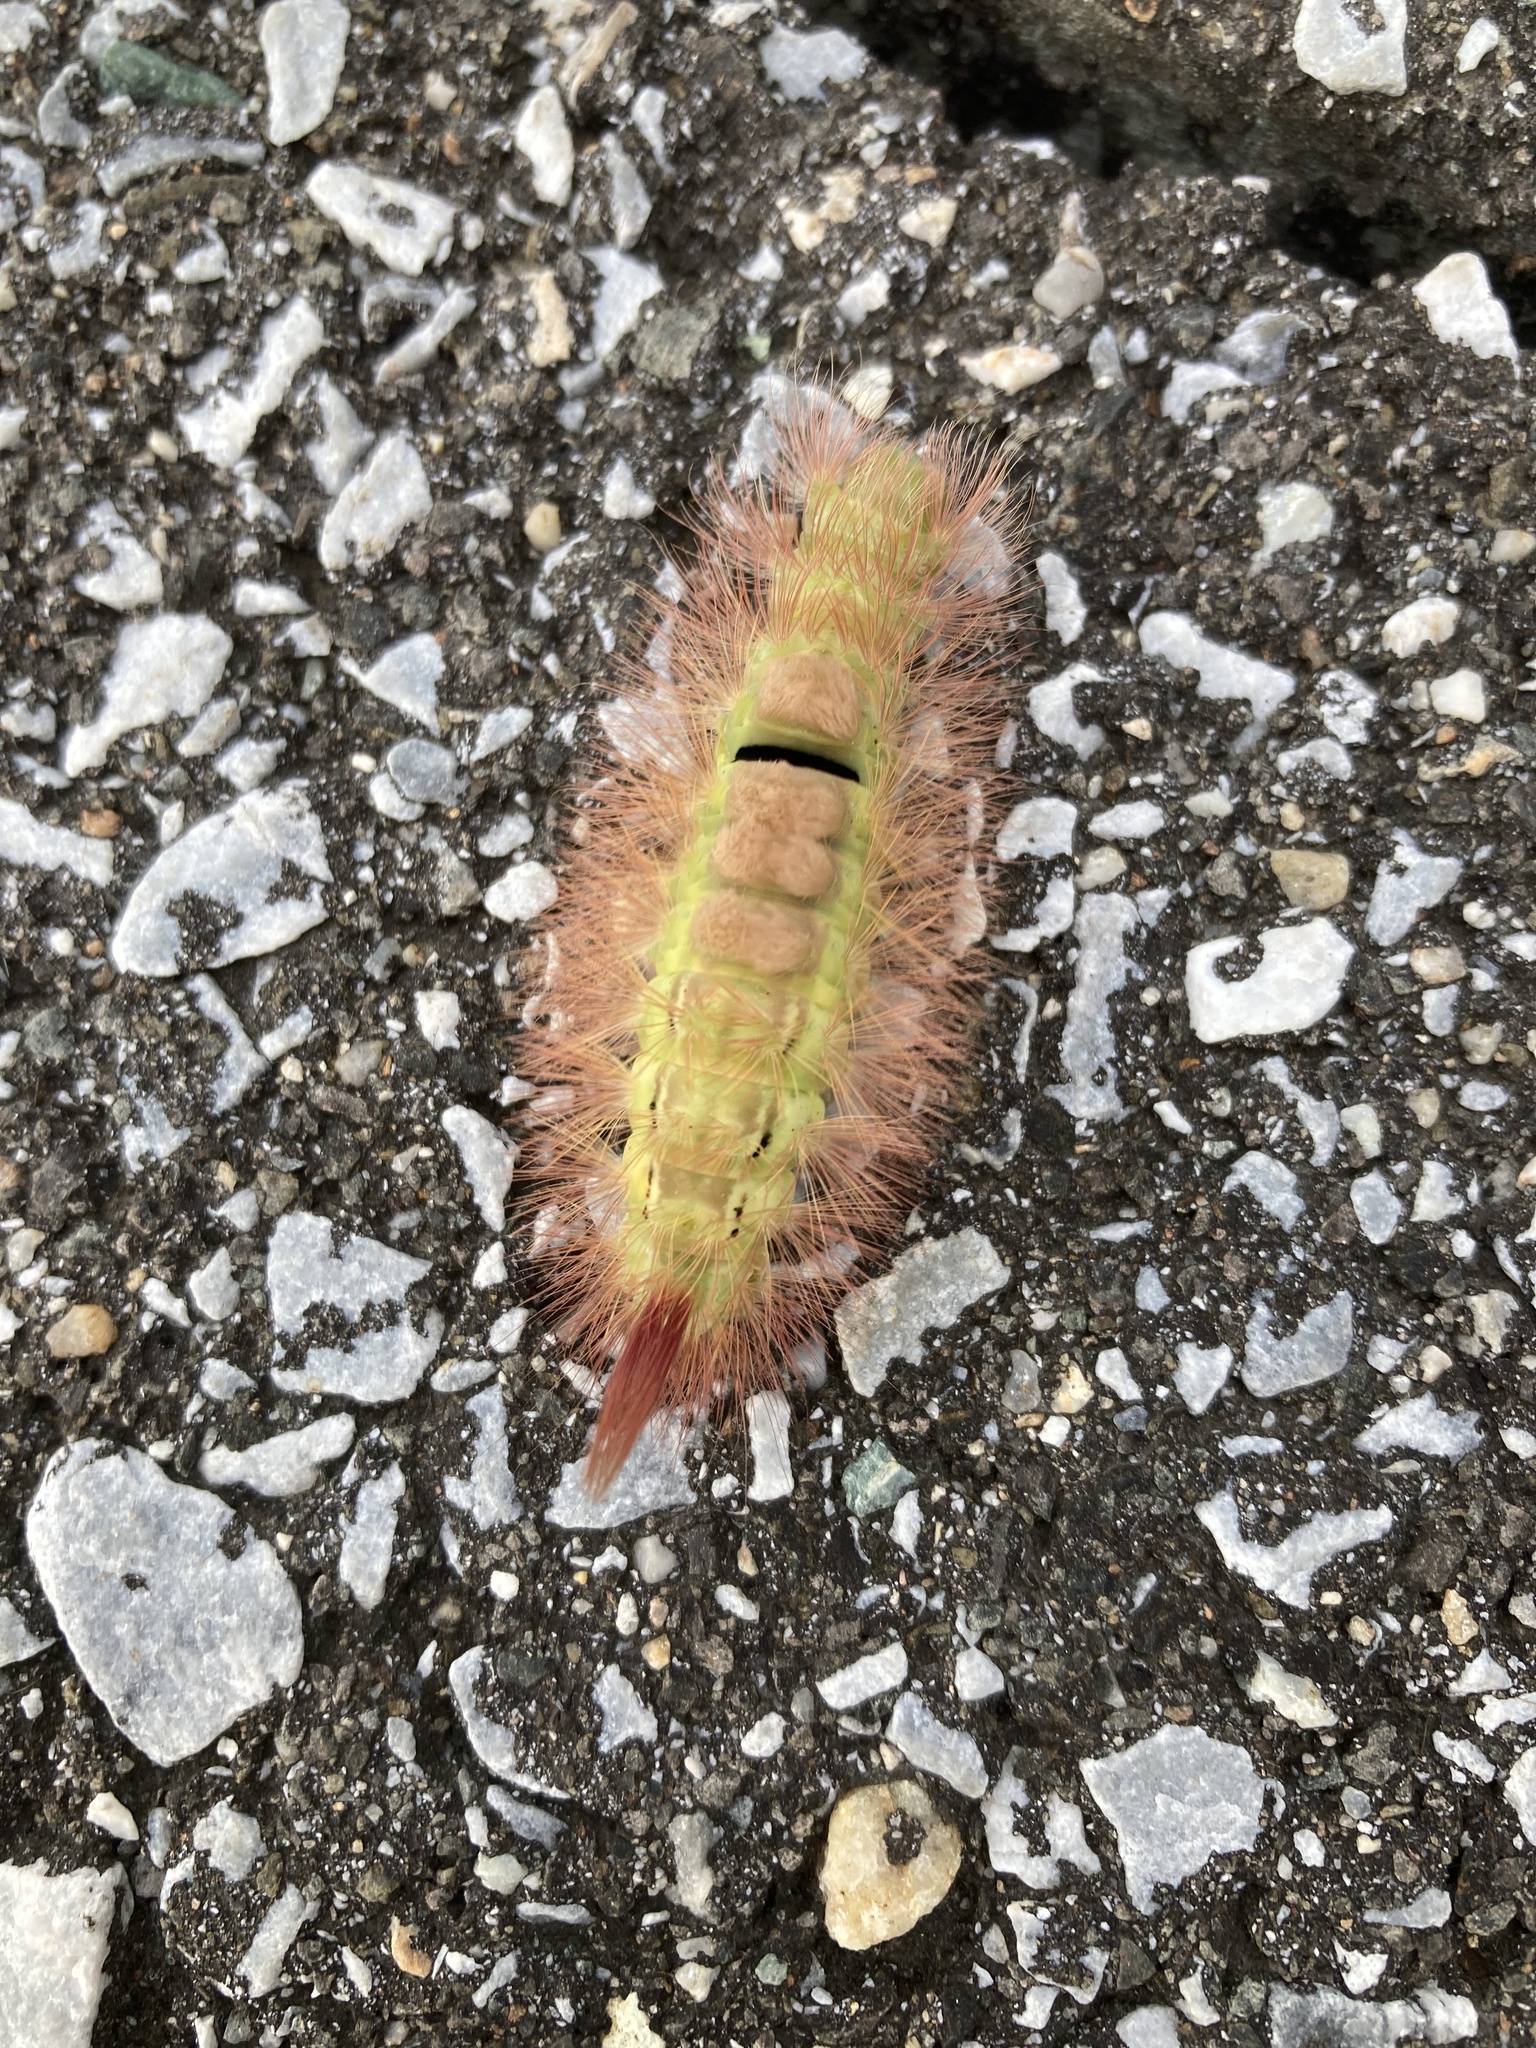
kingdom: Animalia
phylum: Arthropoda
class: Insecta
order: Lepidoptera
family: Erebidae
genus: Calliteara
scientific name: Calliteara pudibunda
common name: Pale tussock
